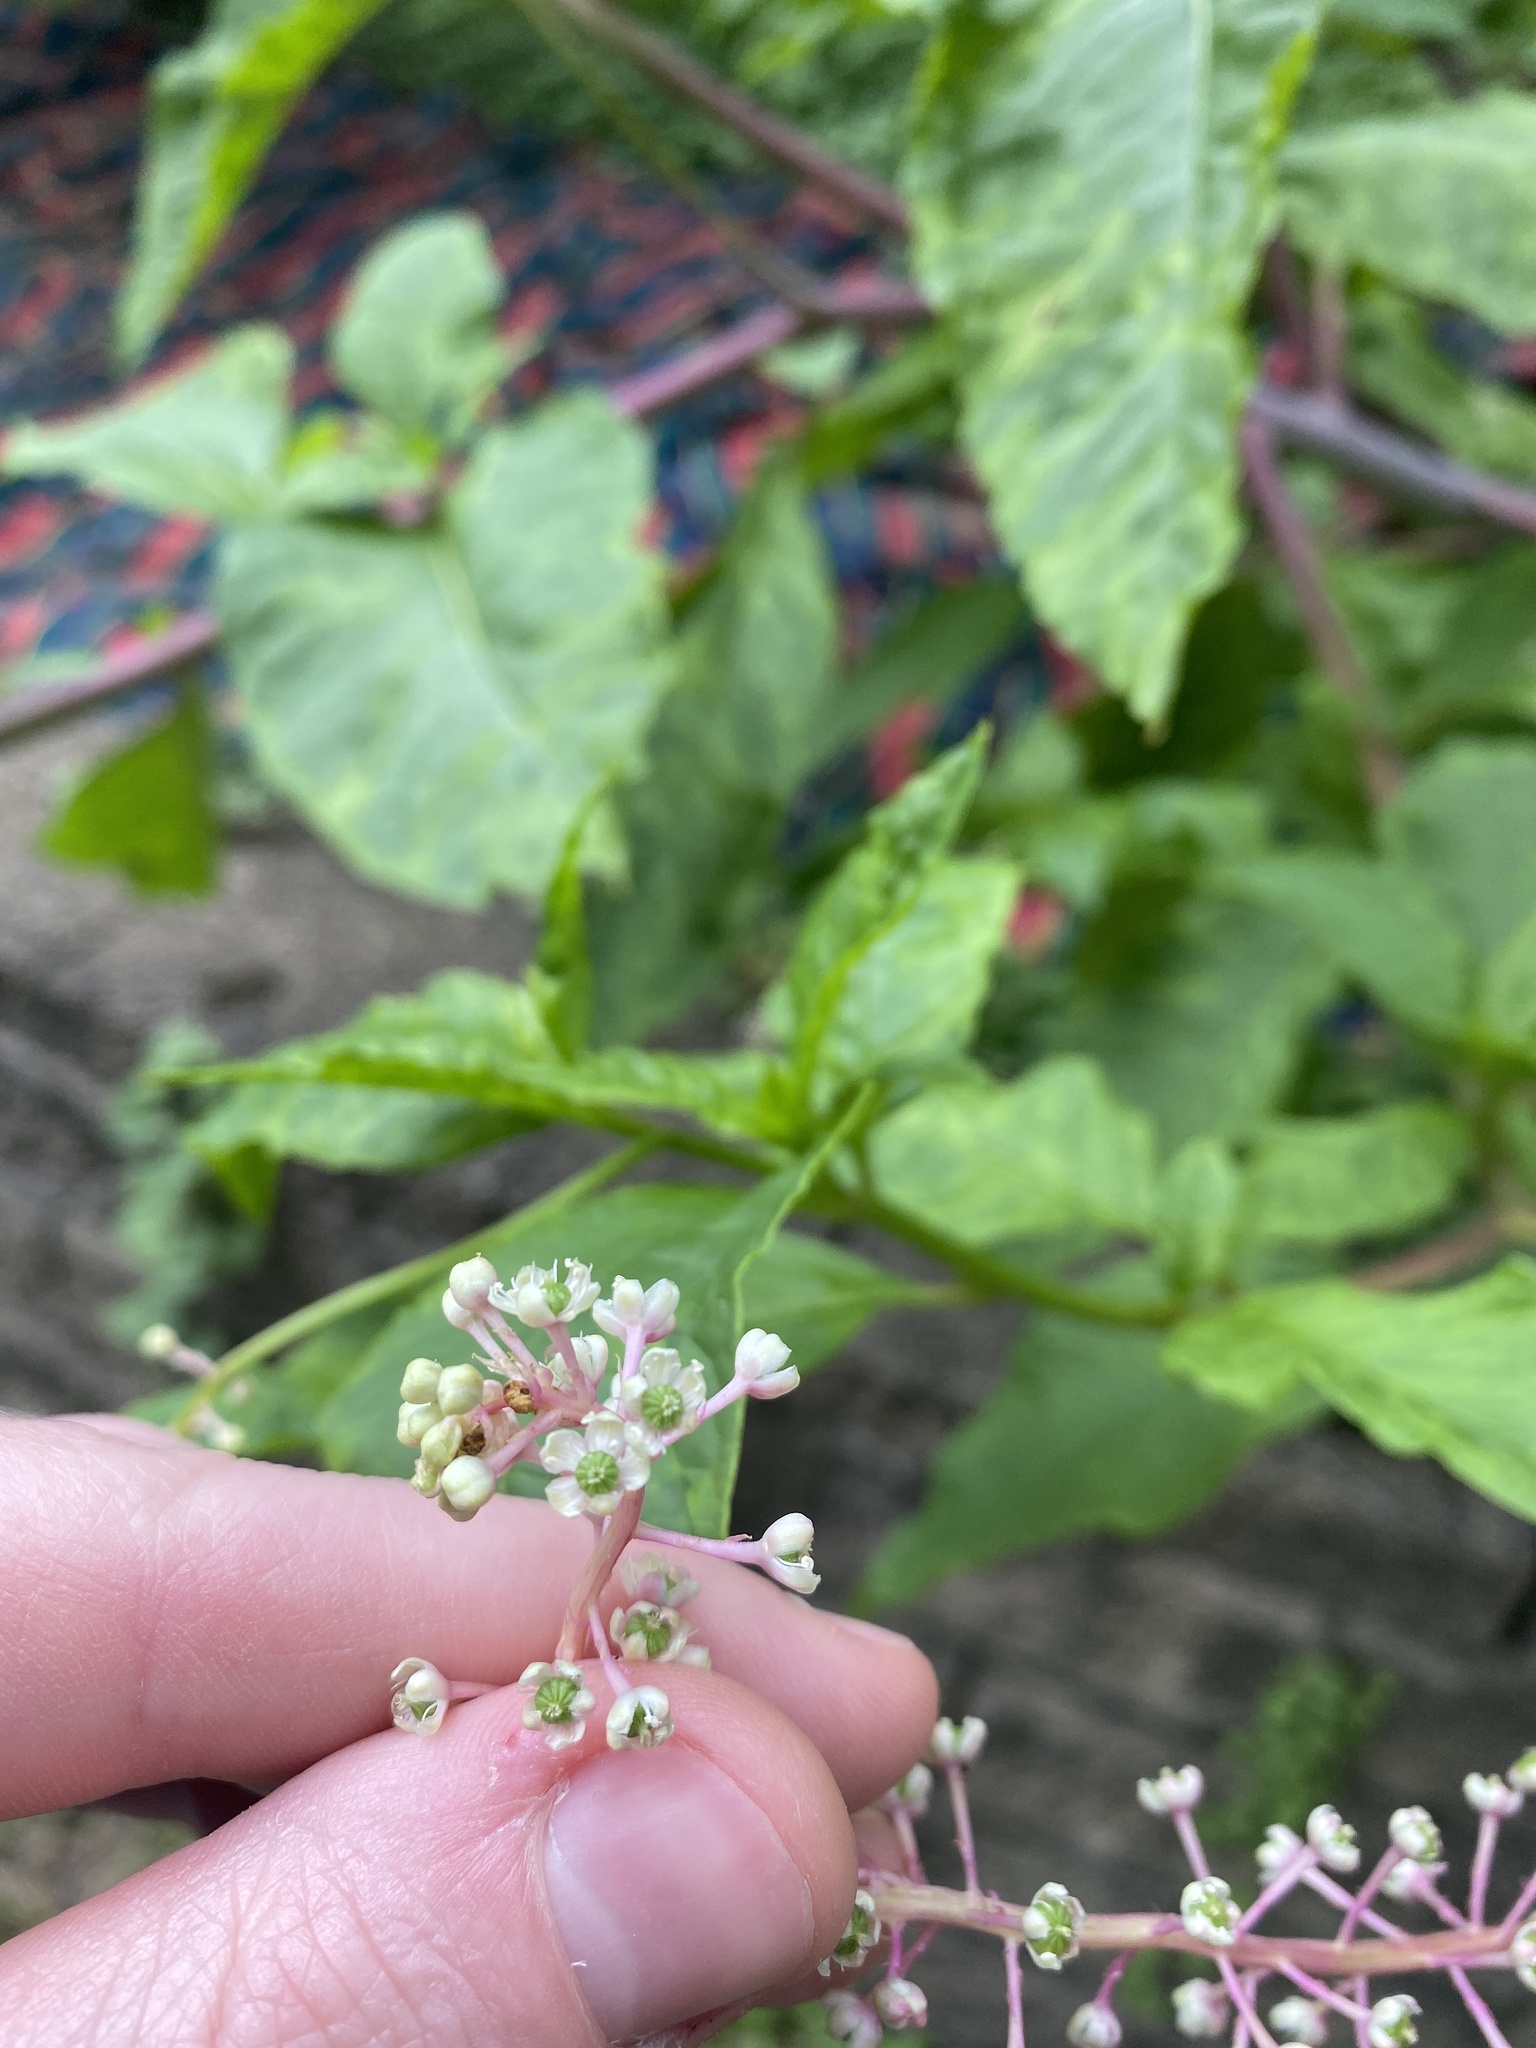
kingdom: Plantae
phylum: Tracheophyta
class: Magnoliopsida
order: Caryophyllales
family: Phytolaccaceae
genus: Phytolacca
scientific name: Phytolacca americana
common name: American pokeweed
